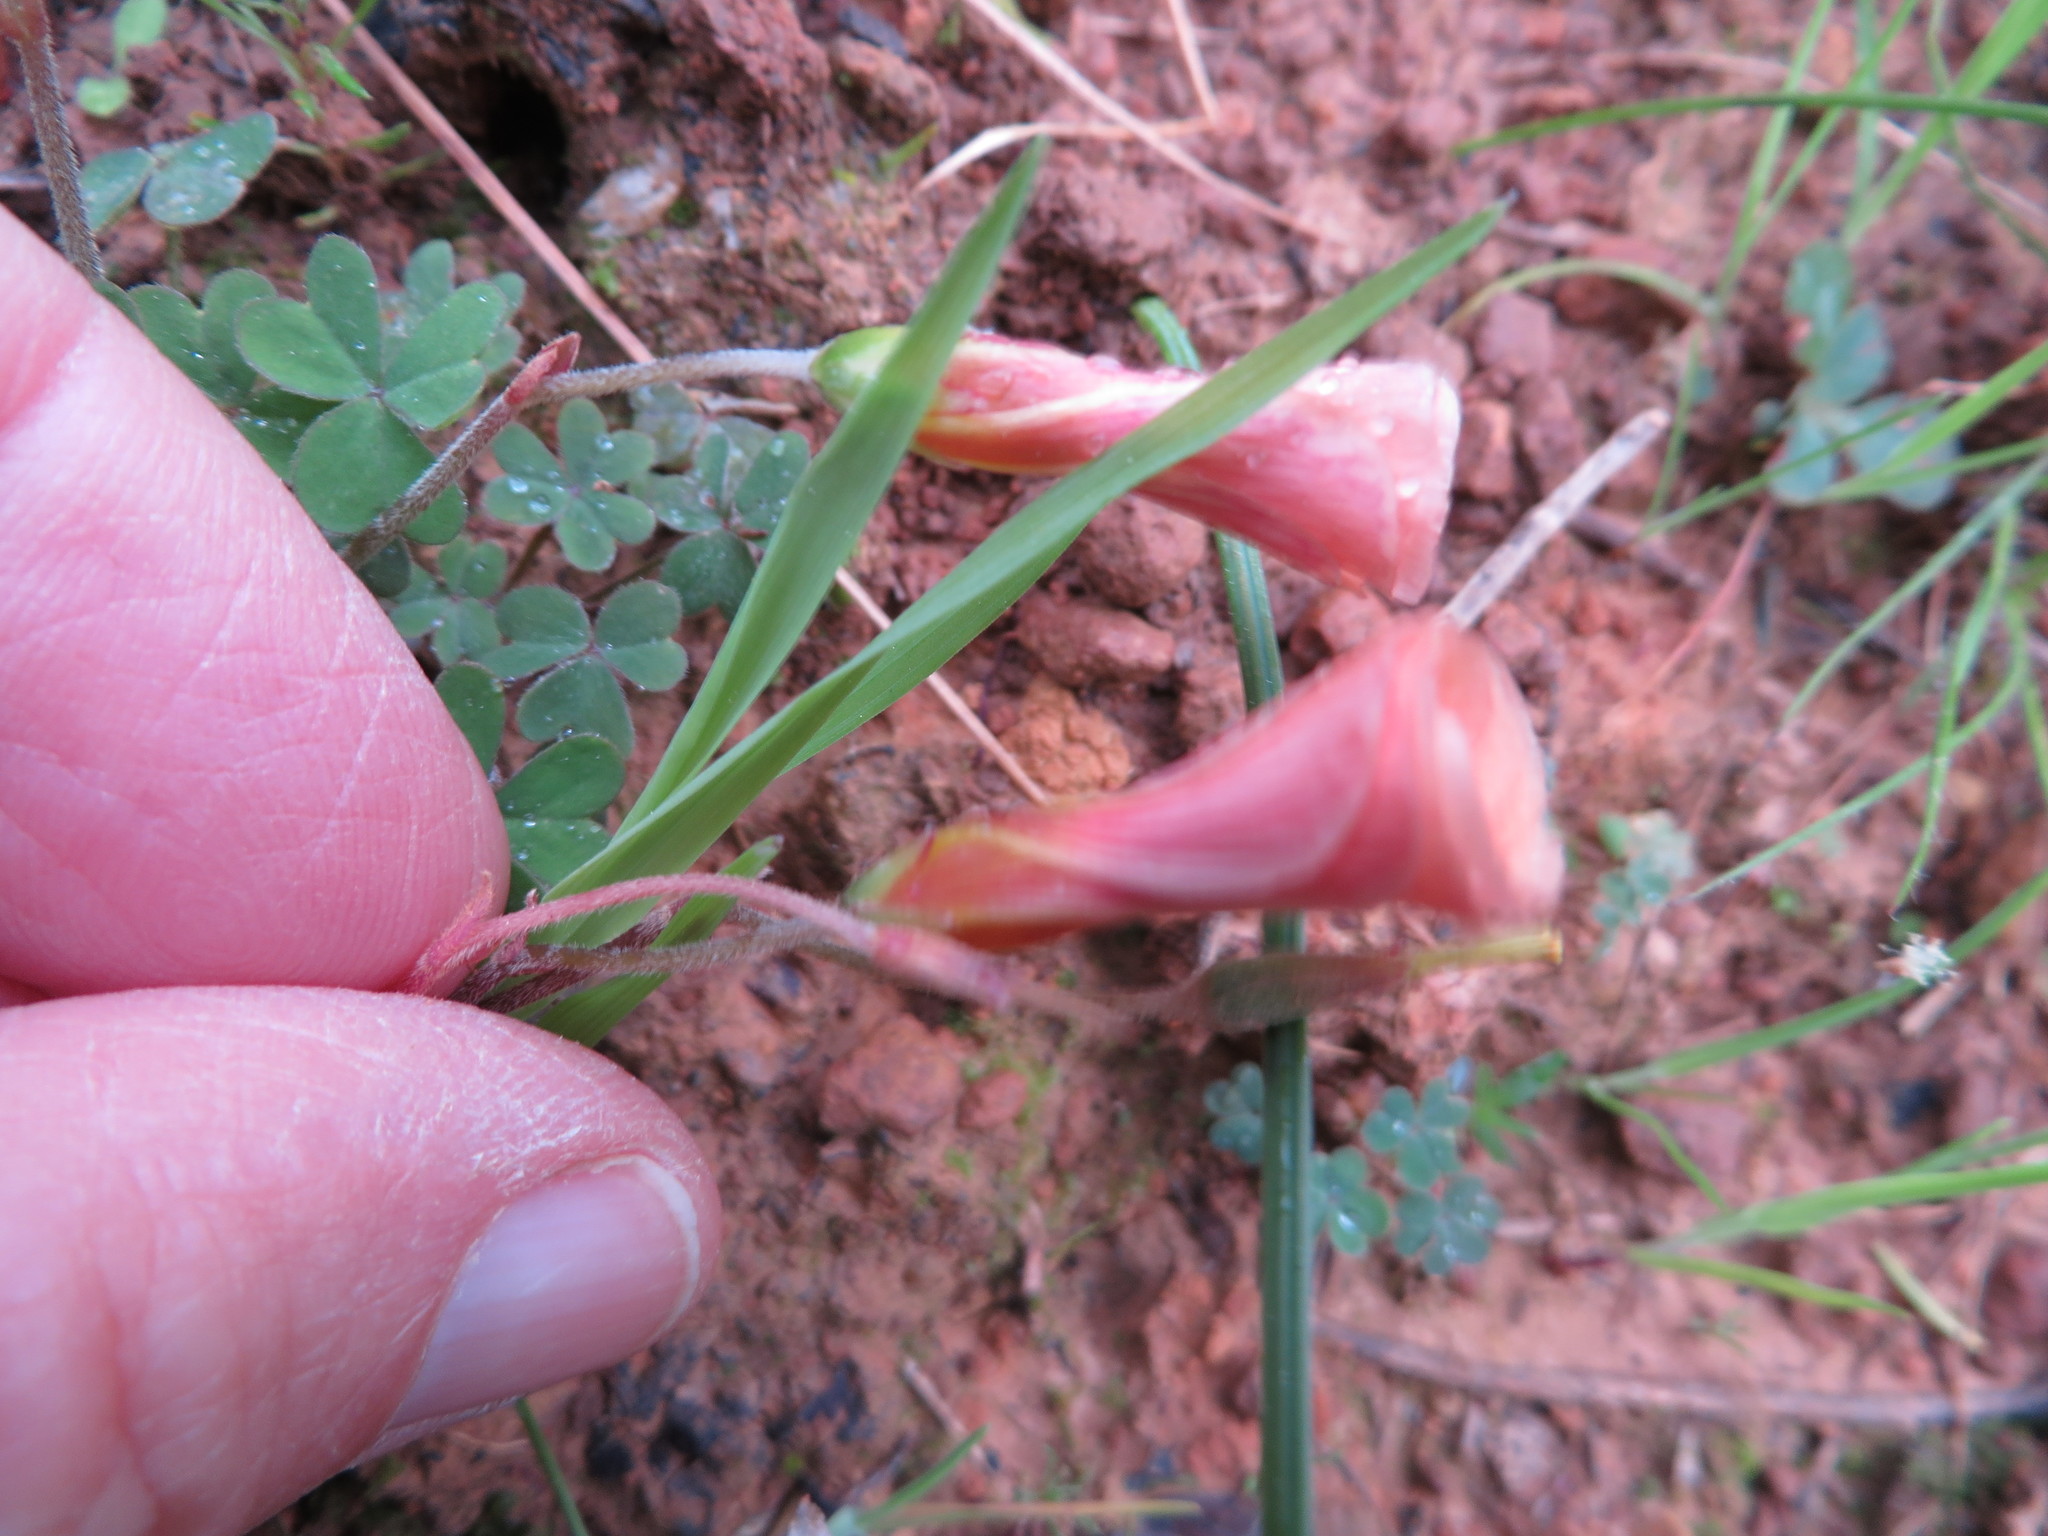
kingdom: Plantae
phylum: Tracheophyta
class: Magnoliopsida
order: Oxalidales
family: Oxalidaceae
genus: Oxalis
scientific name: Oxalis obtusa
